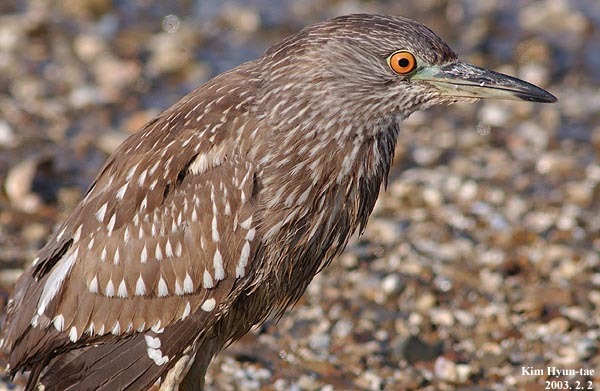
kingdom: Animalia
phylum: Chordata
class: Aves
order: Pelecaniformes
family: Ardeidae
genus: Nycticorax
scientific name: Nycticorax nycticorax
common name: Black-crowned night heron
